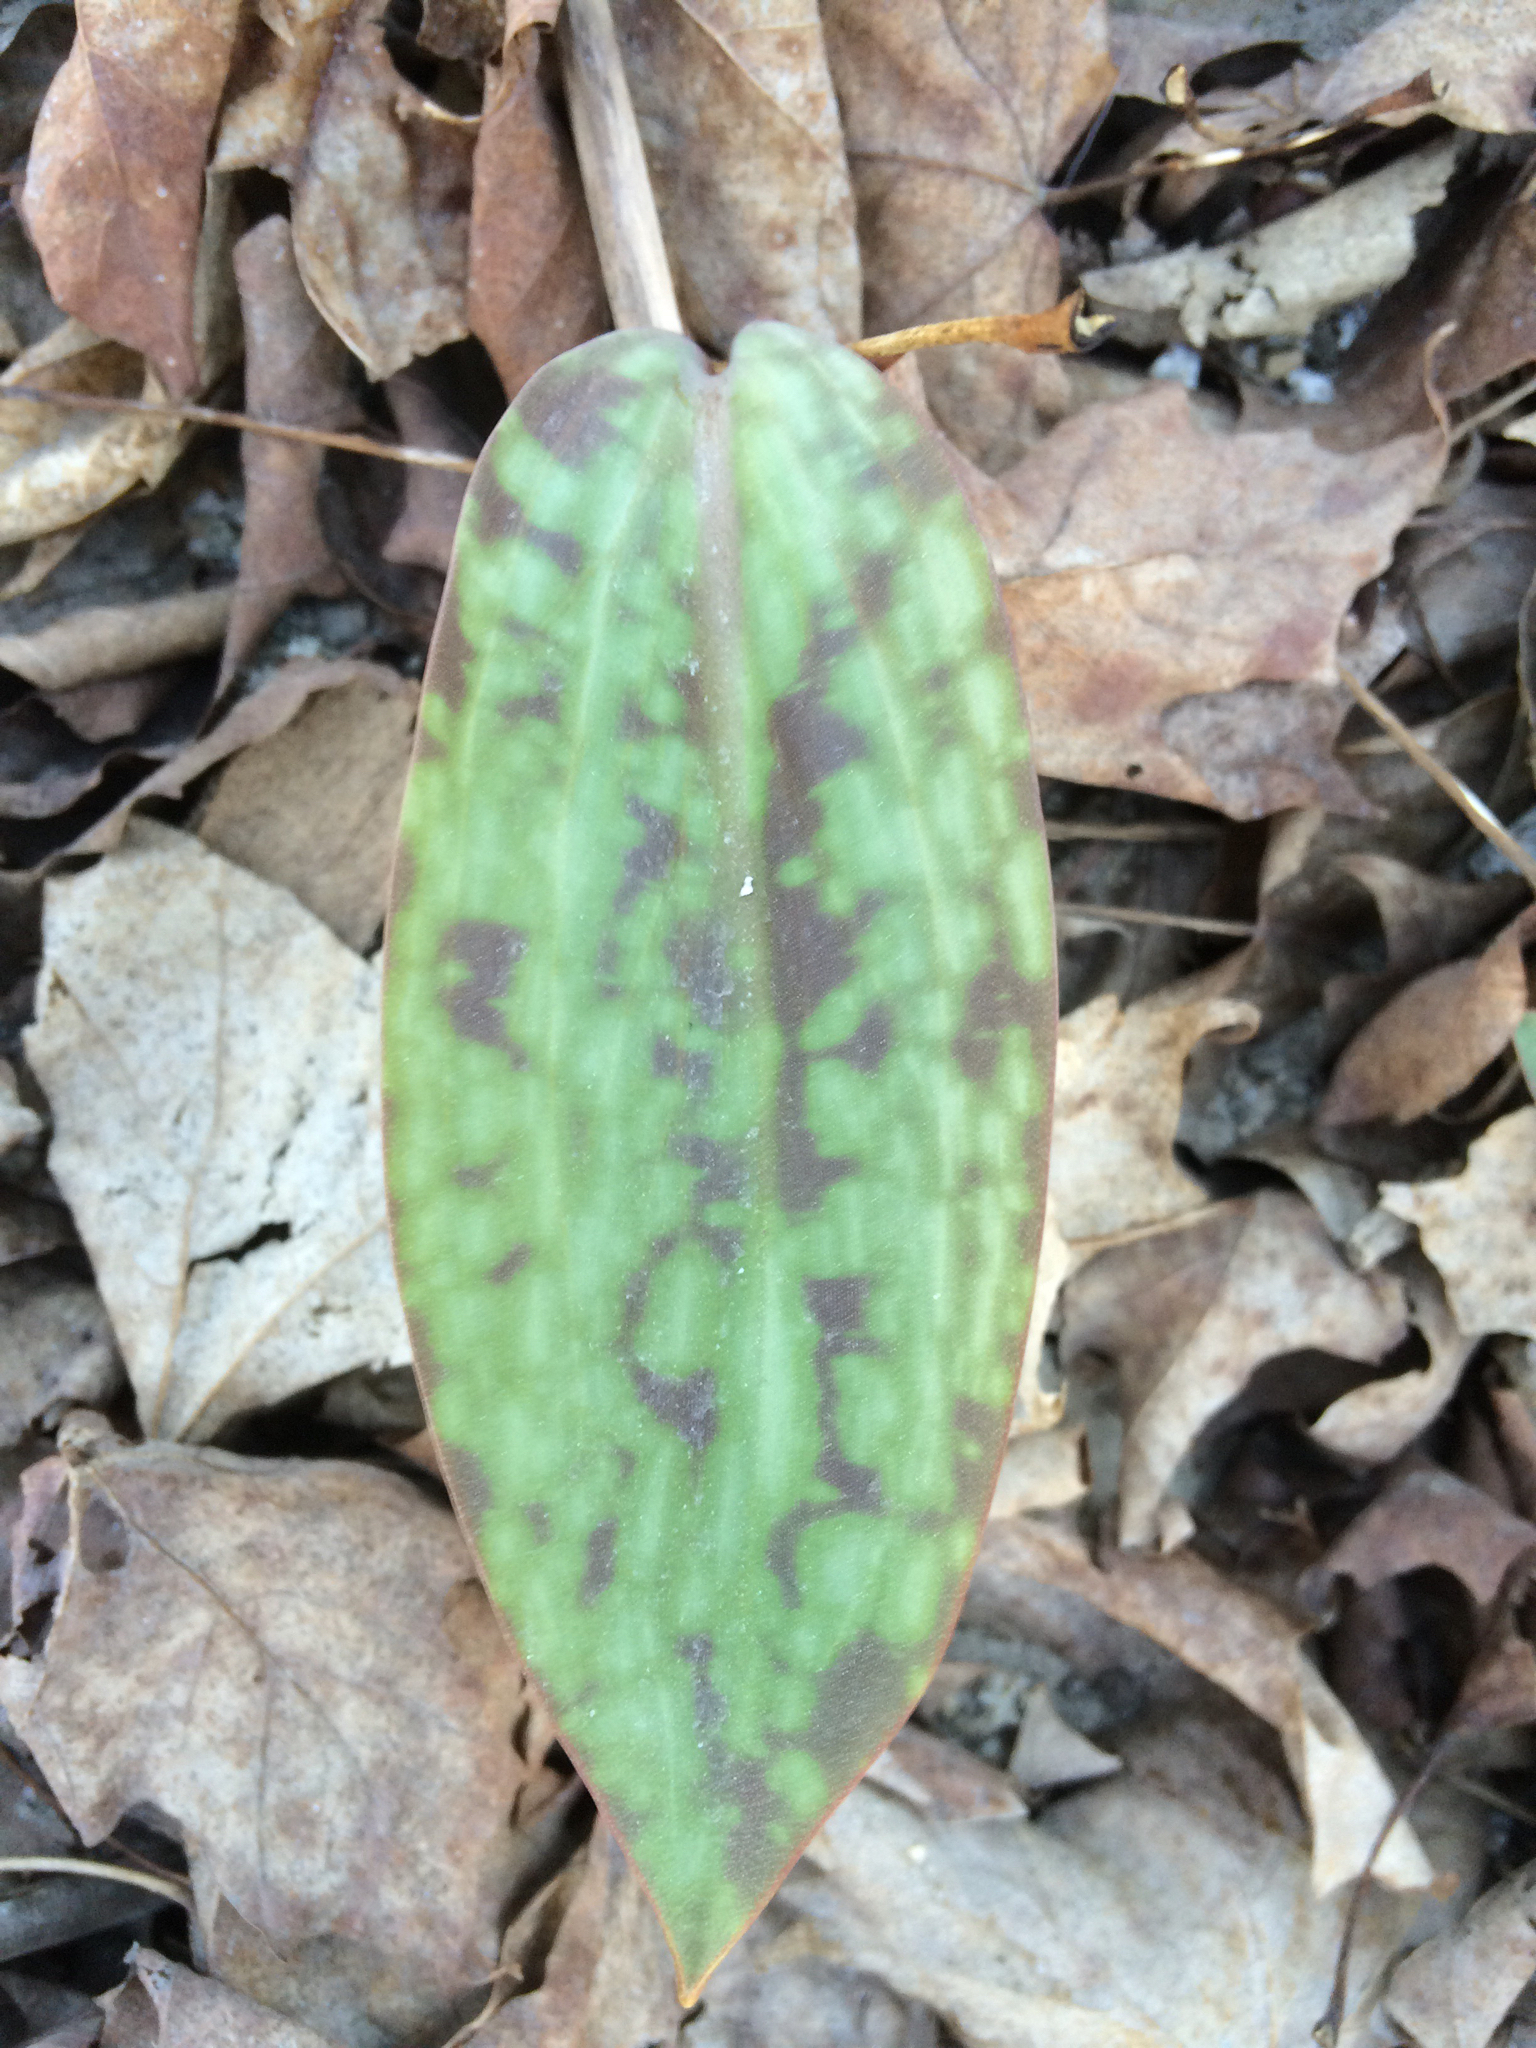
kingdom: Plantae
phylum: Tracheophyta
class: Liliopsida
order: Liliales
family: Liliaceae
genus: Erythronium
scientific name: Erythronium americanum
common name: Yellow adder's-tongue
